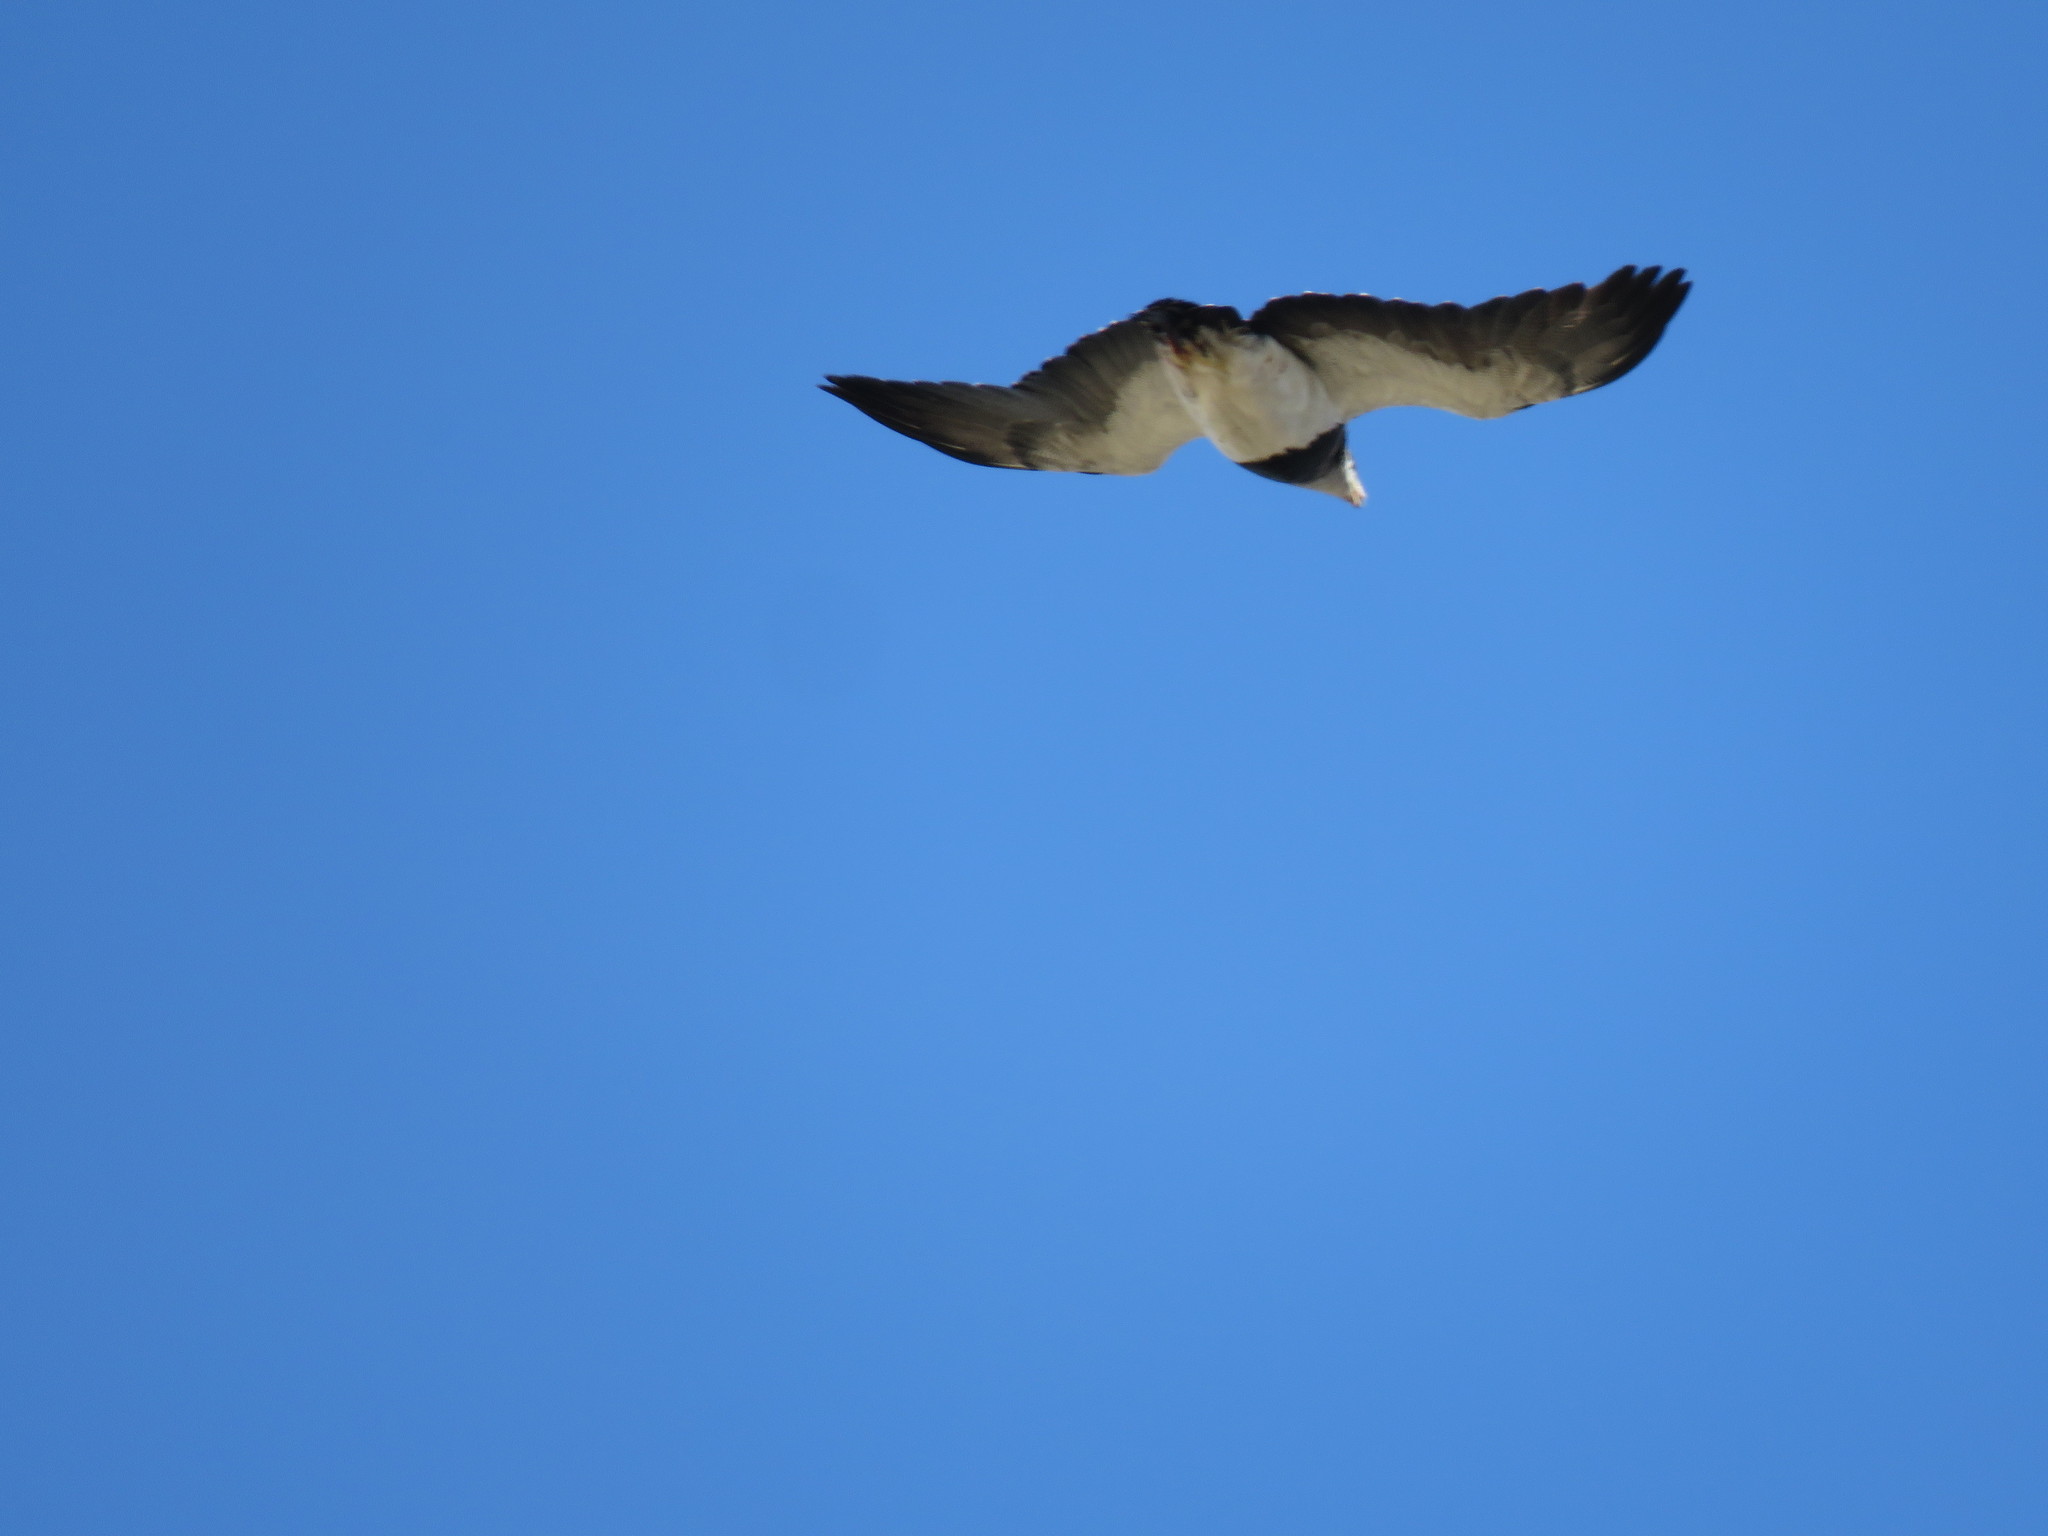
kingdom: Animalia
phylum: Chordata
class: Aves
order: Accipitriformes
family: Accipitridae
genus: Geranoaetus
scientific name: Geranoaetus melanoleucus
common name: Black-chested buzzard-eagle
